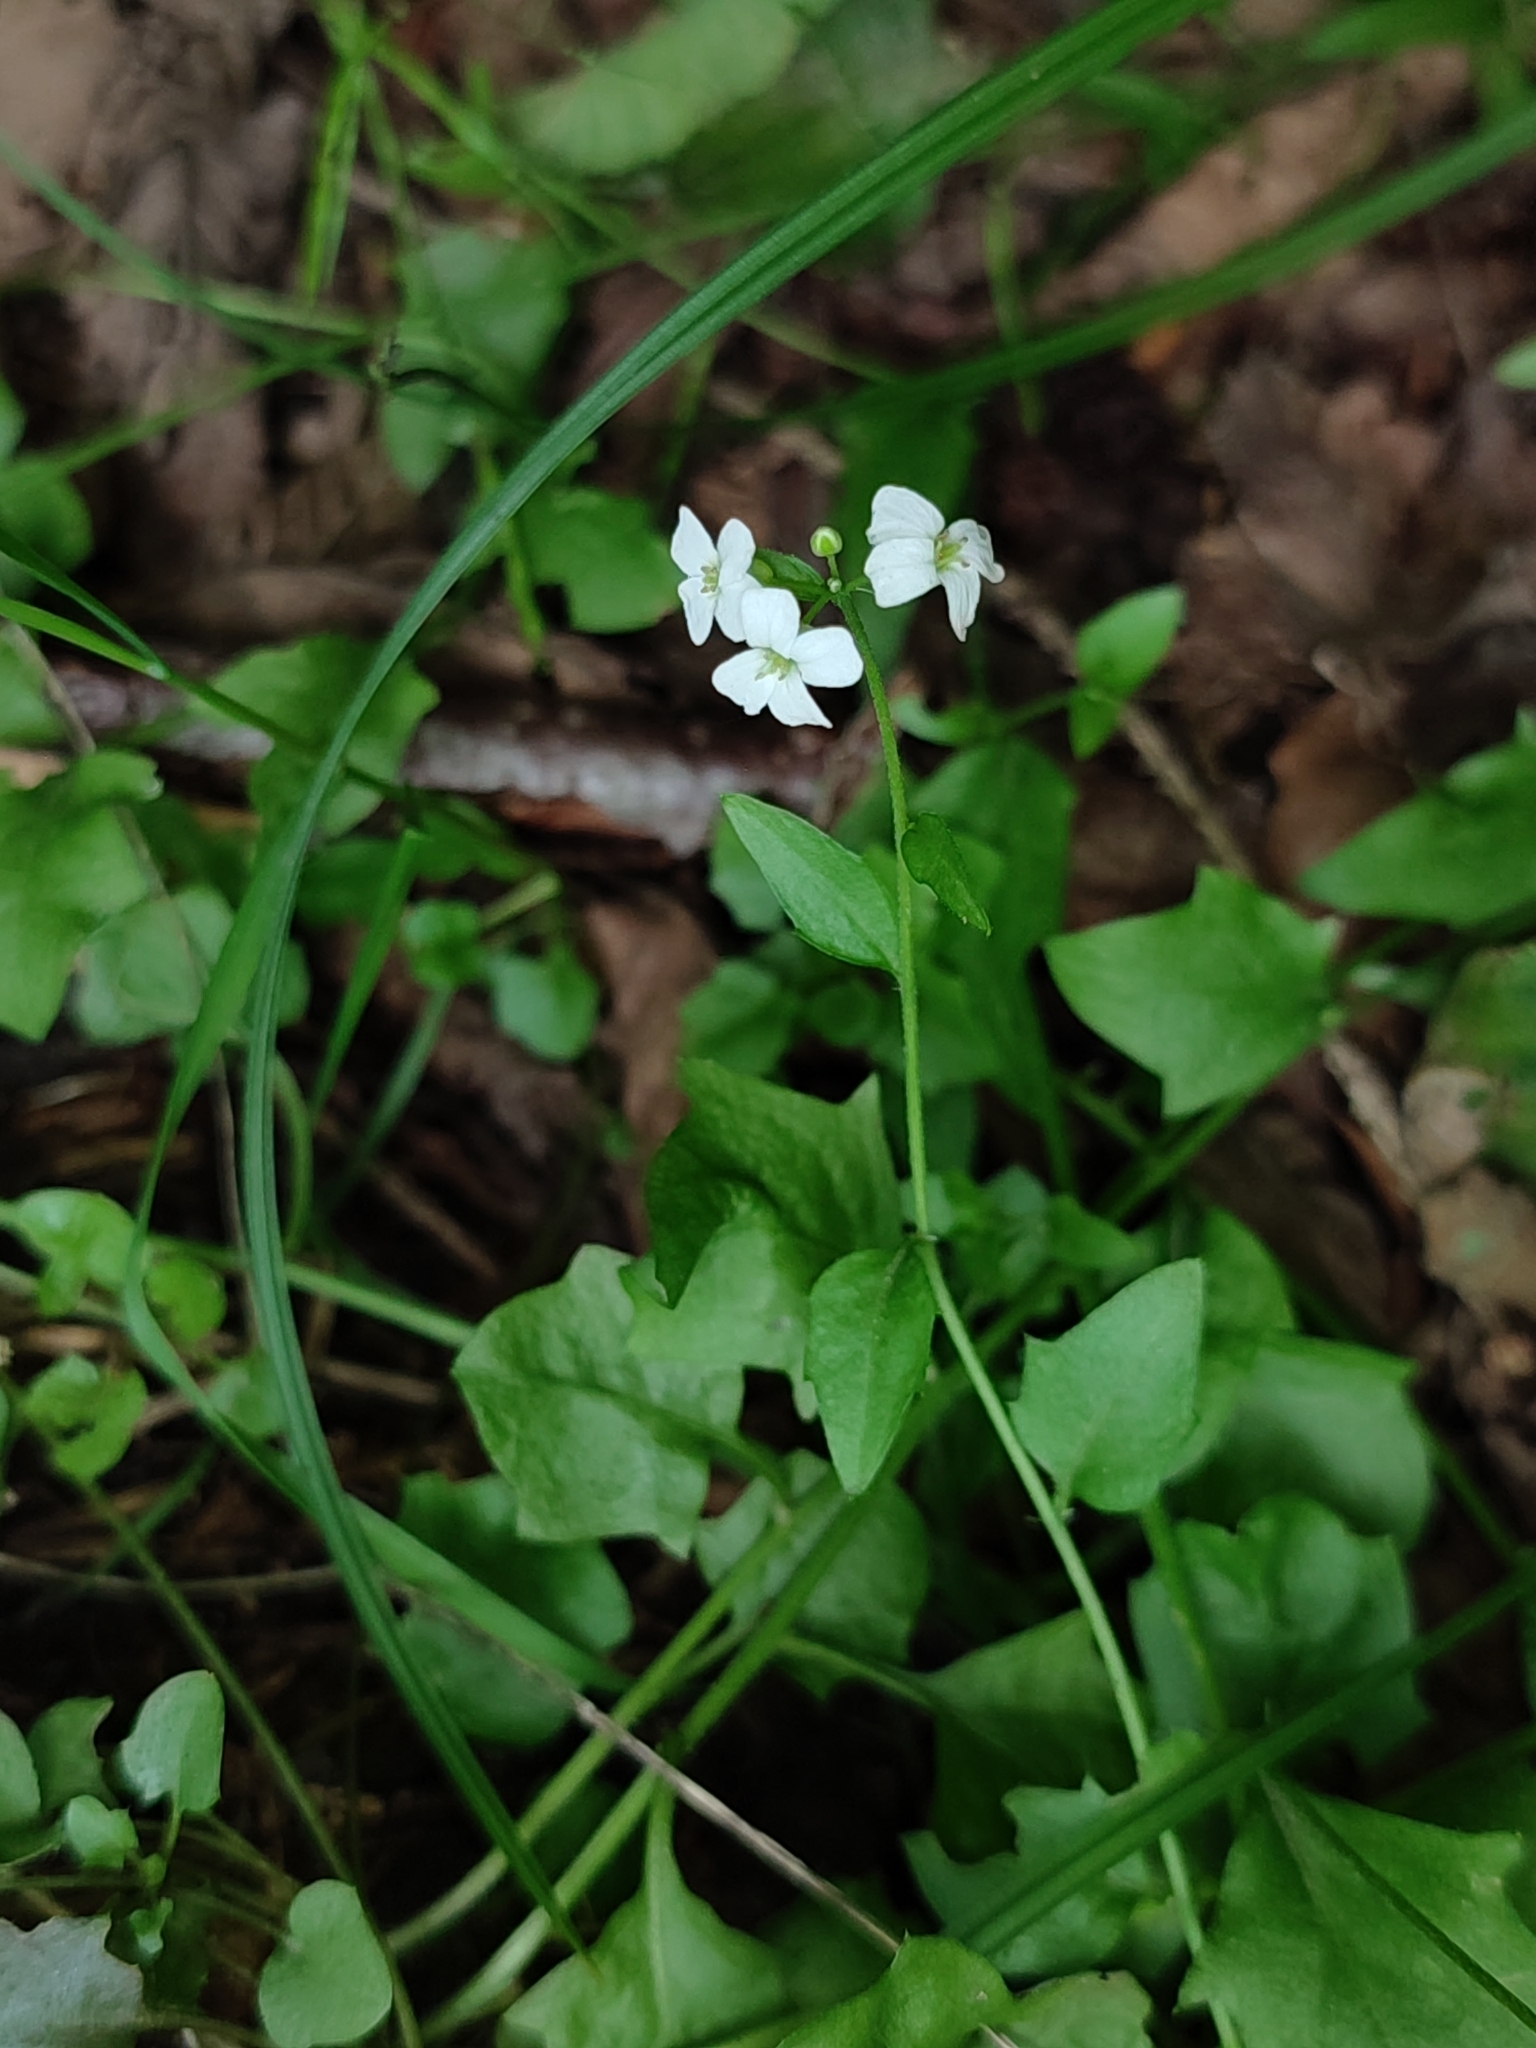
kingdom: Plantae
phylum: Tracheophyta
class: Magnoliopsida
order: Brassicales
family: Brassicaceae
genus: Arabidopsis
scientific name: Arabidopsis halleri
